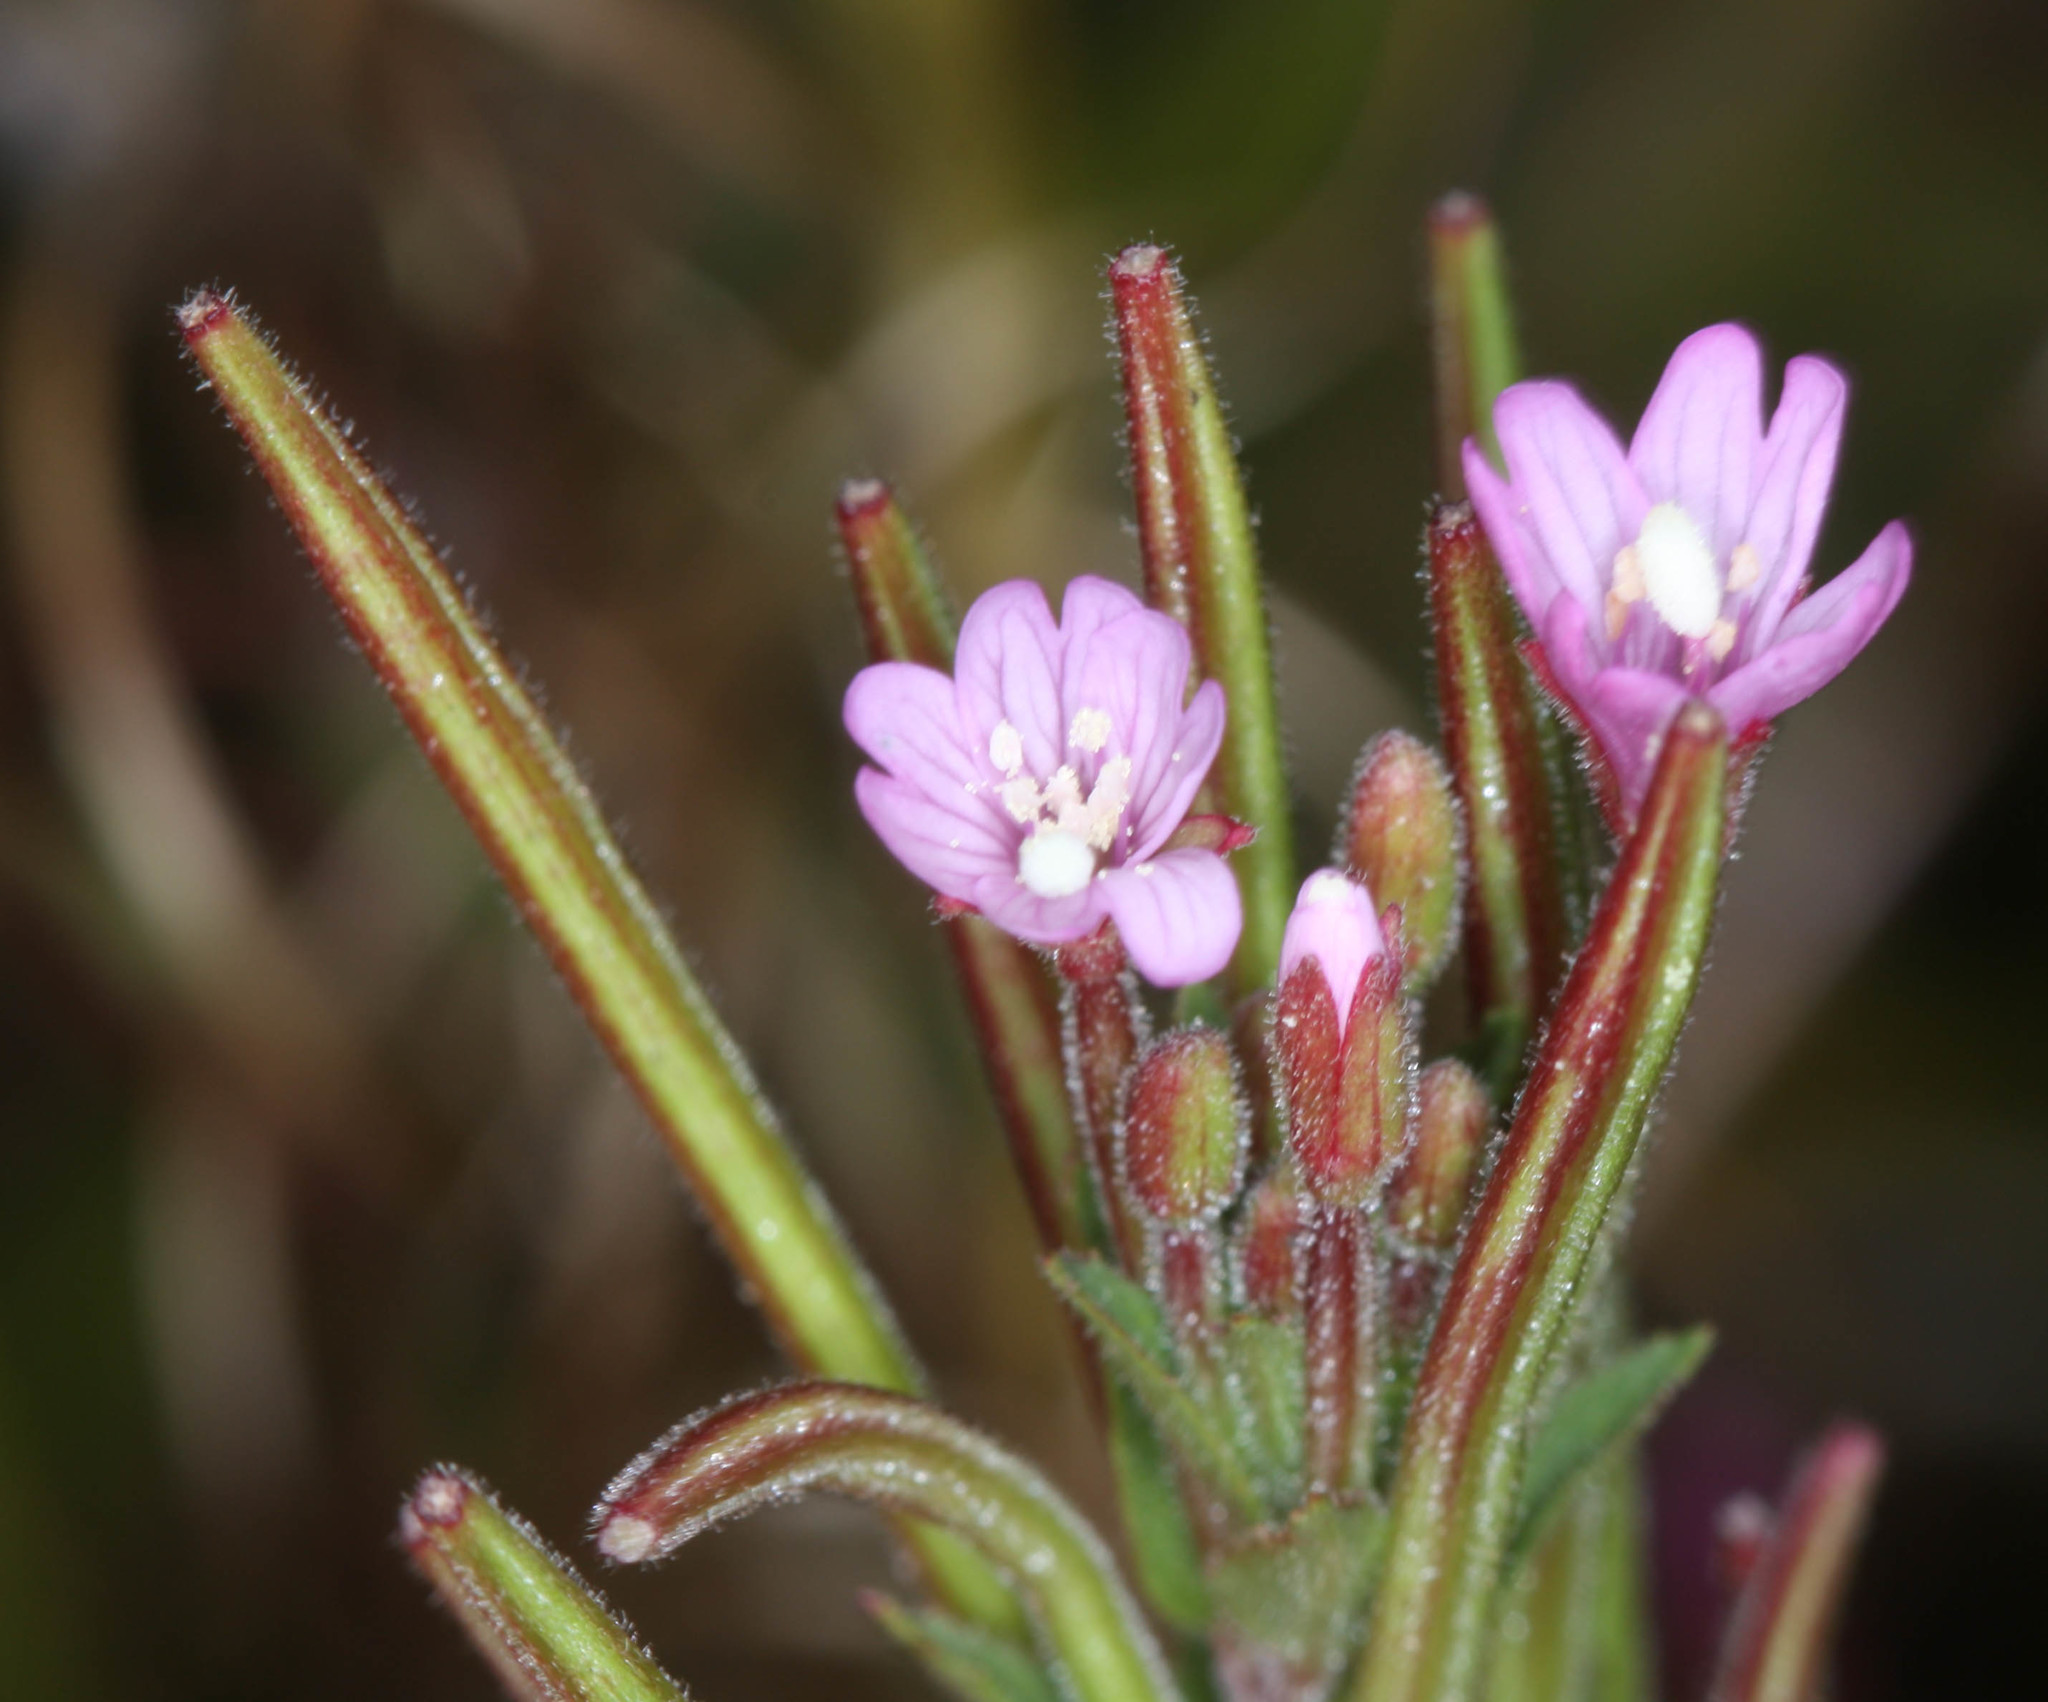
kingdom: Plantae
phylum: Tracheophyta
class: Magnoliopsida
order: Myrtales
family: Onagraceae
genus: Epilobium
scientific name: Epilobium ciliatum
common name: American willowherb
